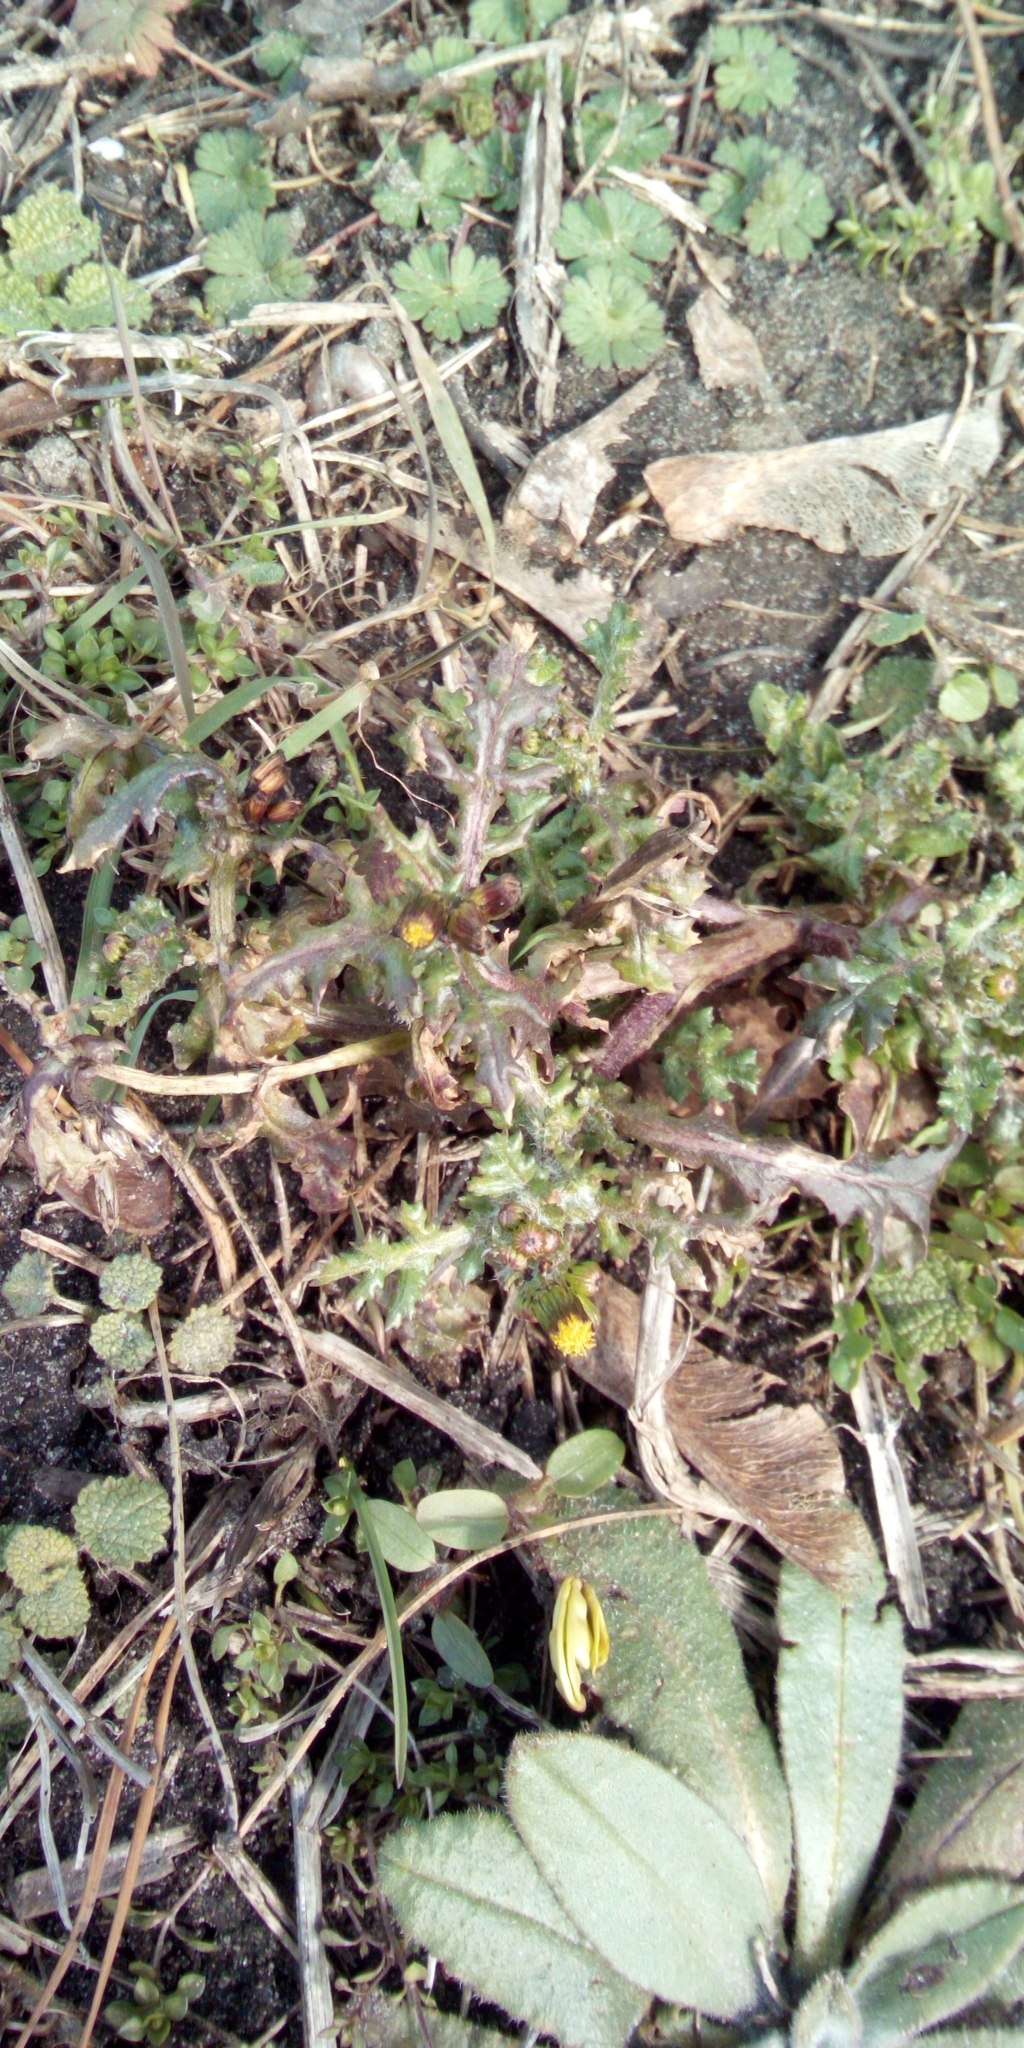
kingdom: Plantae
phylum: Tracheophyta
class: Magnoliopsida
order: Asterales
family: Asteraceae
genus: Senecio
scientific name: Senecio vulgaris
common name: Old-man-in-the-spring
